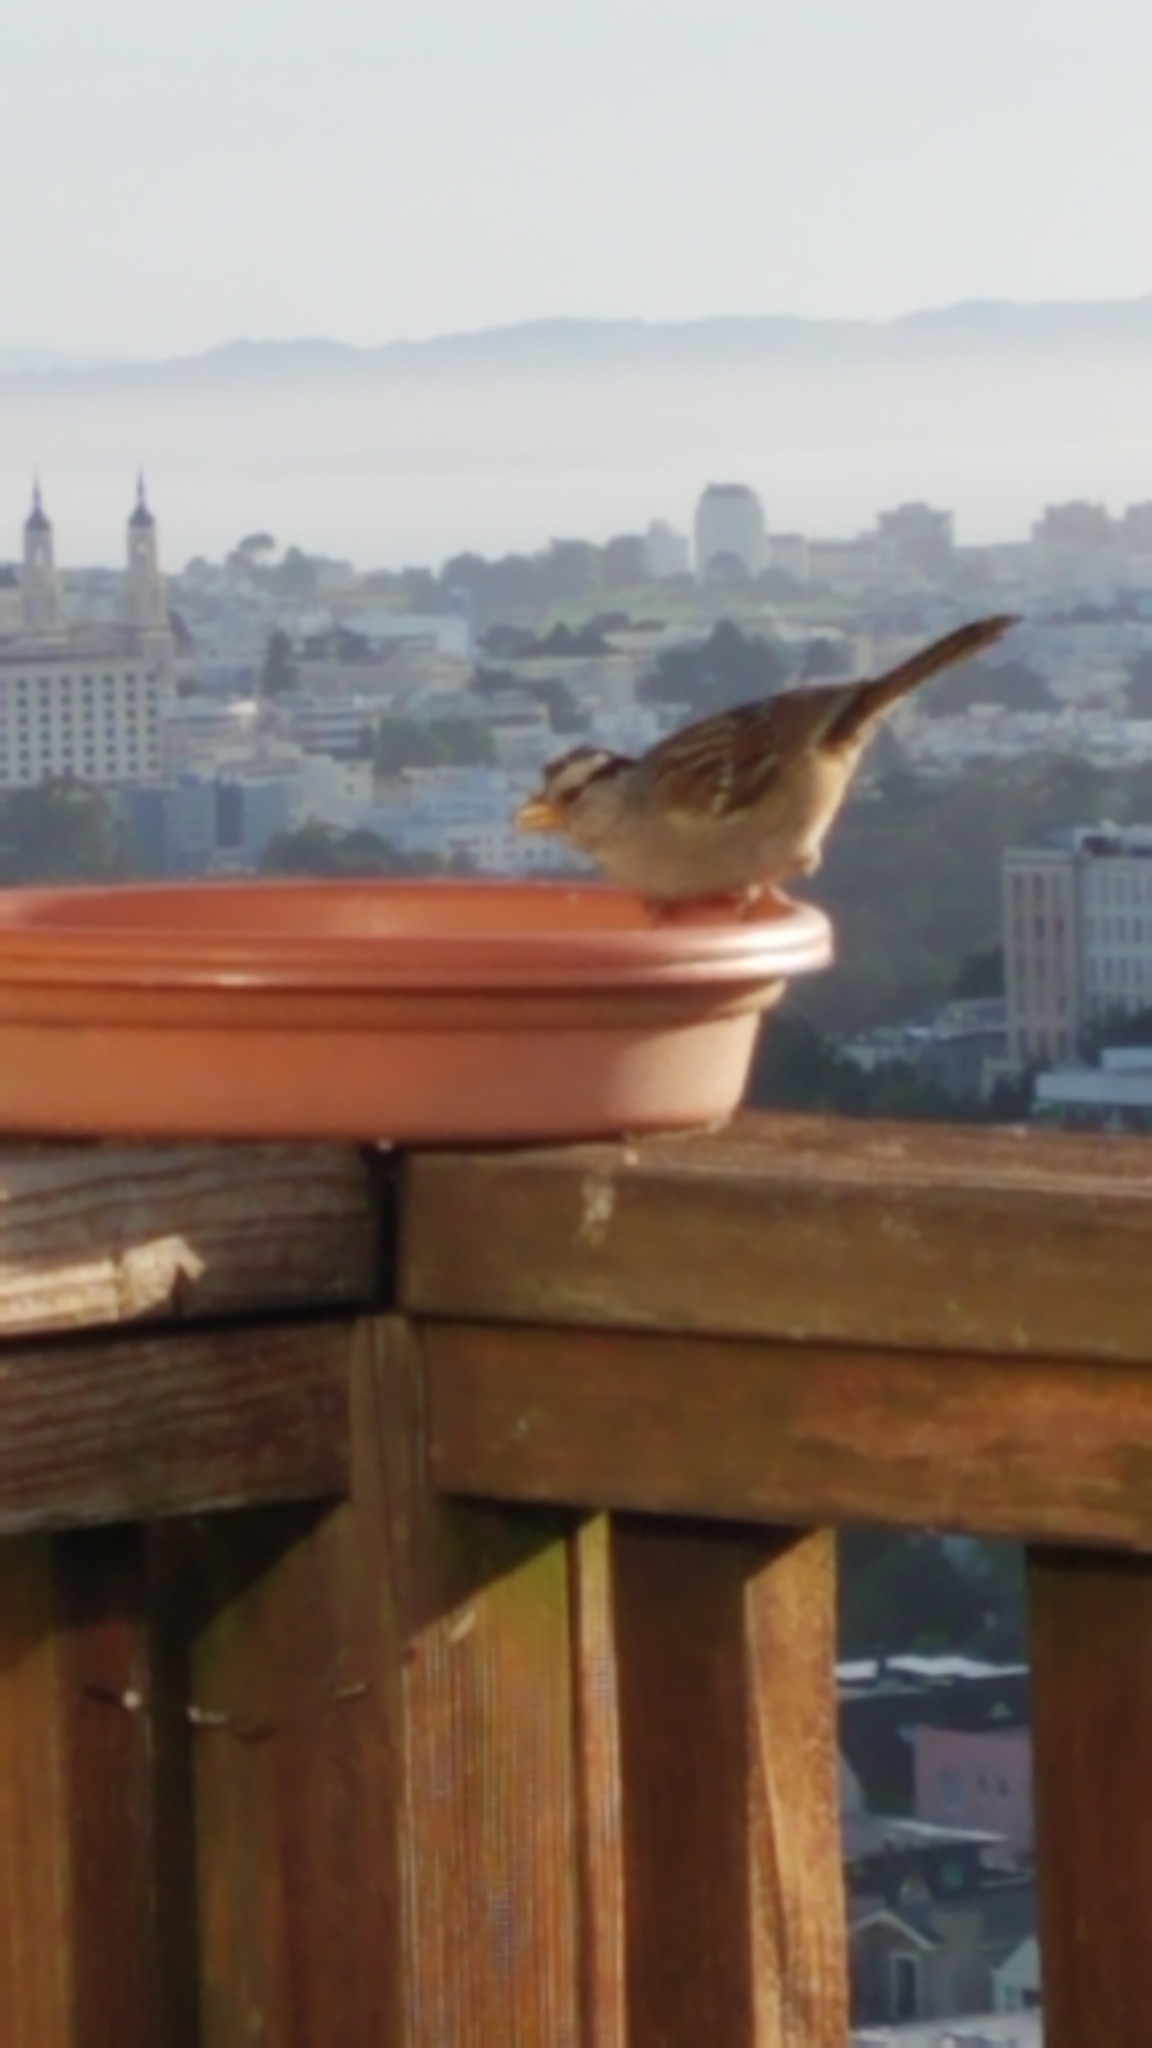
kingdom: Animalia
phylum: Chordata
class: Aves
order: Passeriformes
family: Passerellidae
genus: Zonotrichia
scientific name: Zonotrichia leucophrys
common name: White-crowned sparrow
